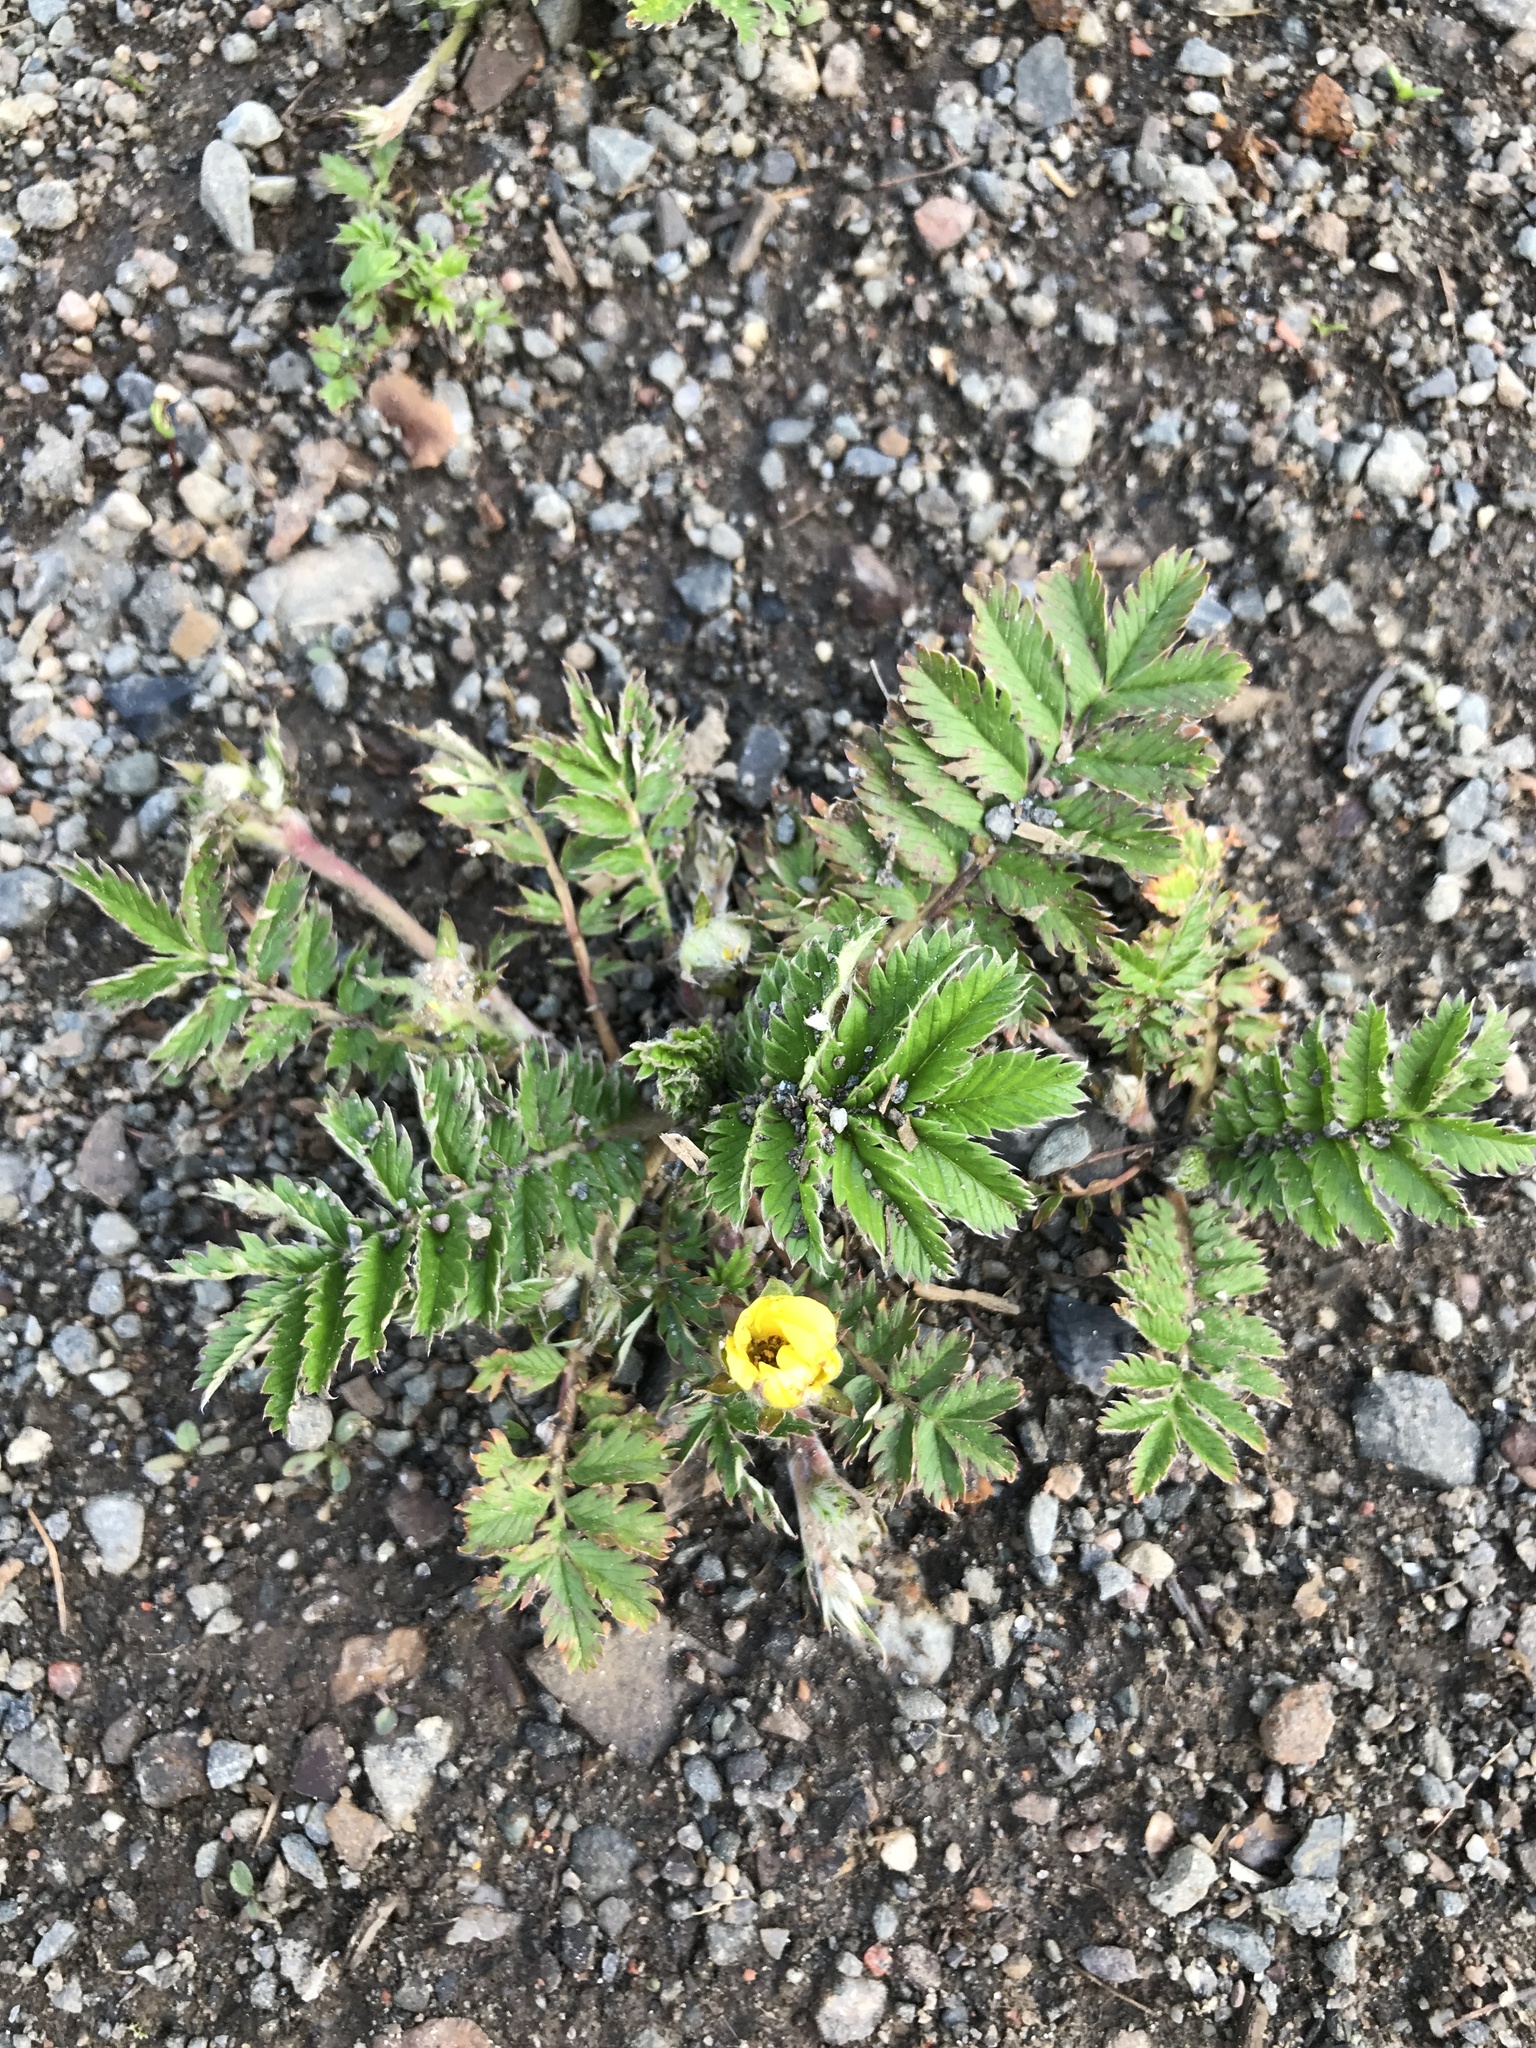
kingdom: Plantae
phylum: Tracheophyta
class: Magnoliopsida
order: Rosales
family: Rosaceae
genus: Argentina
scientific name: Argentina anserina
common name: Common silverweed
